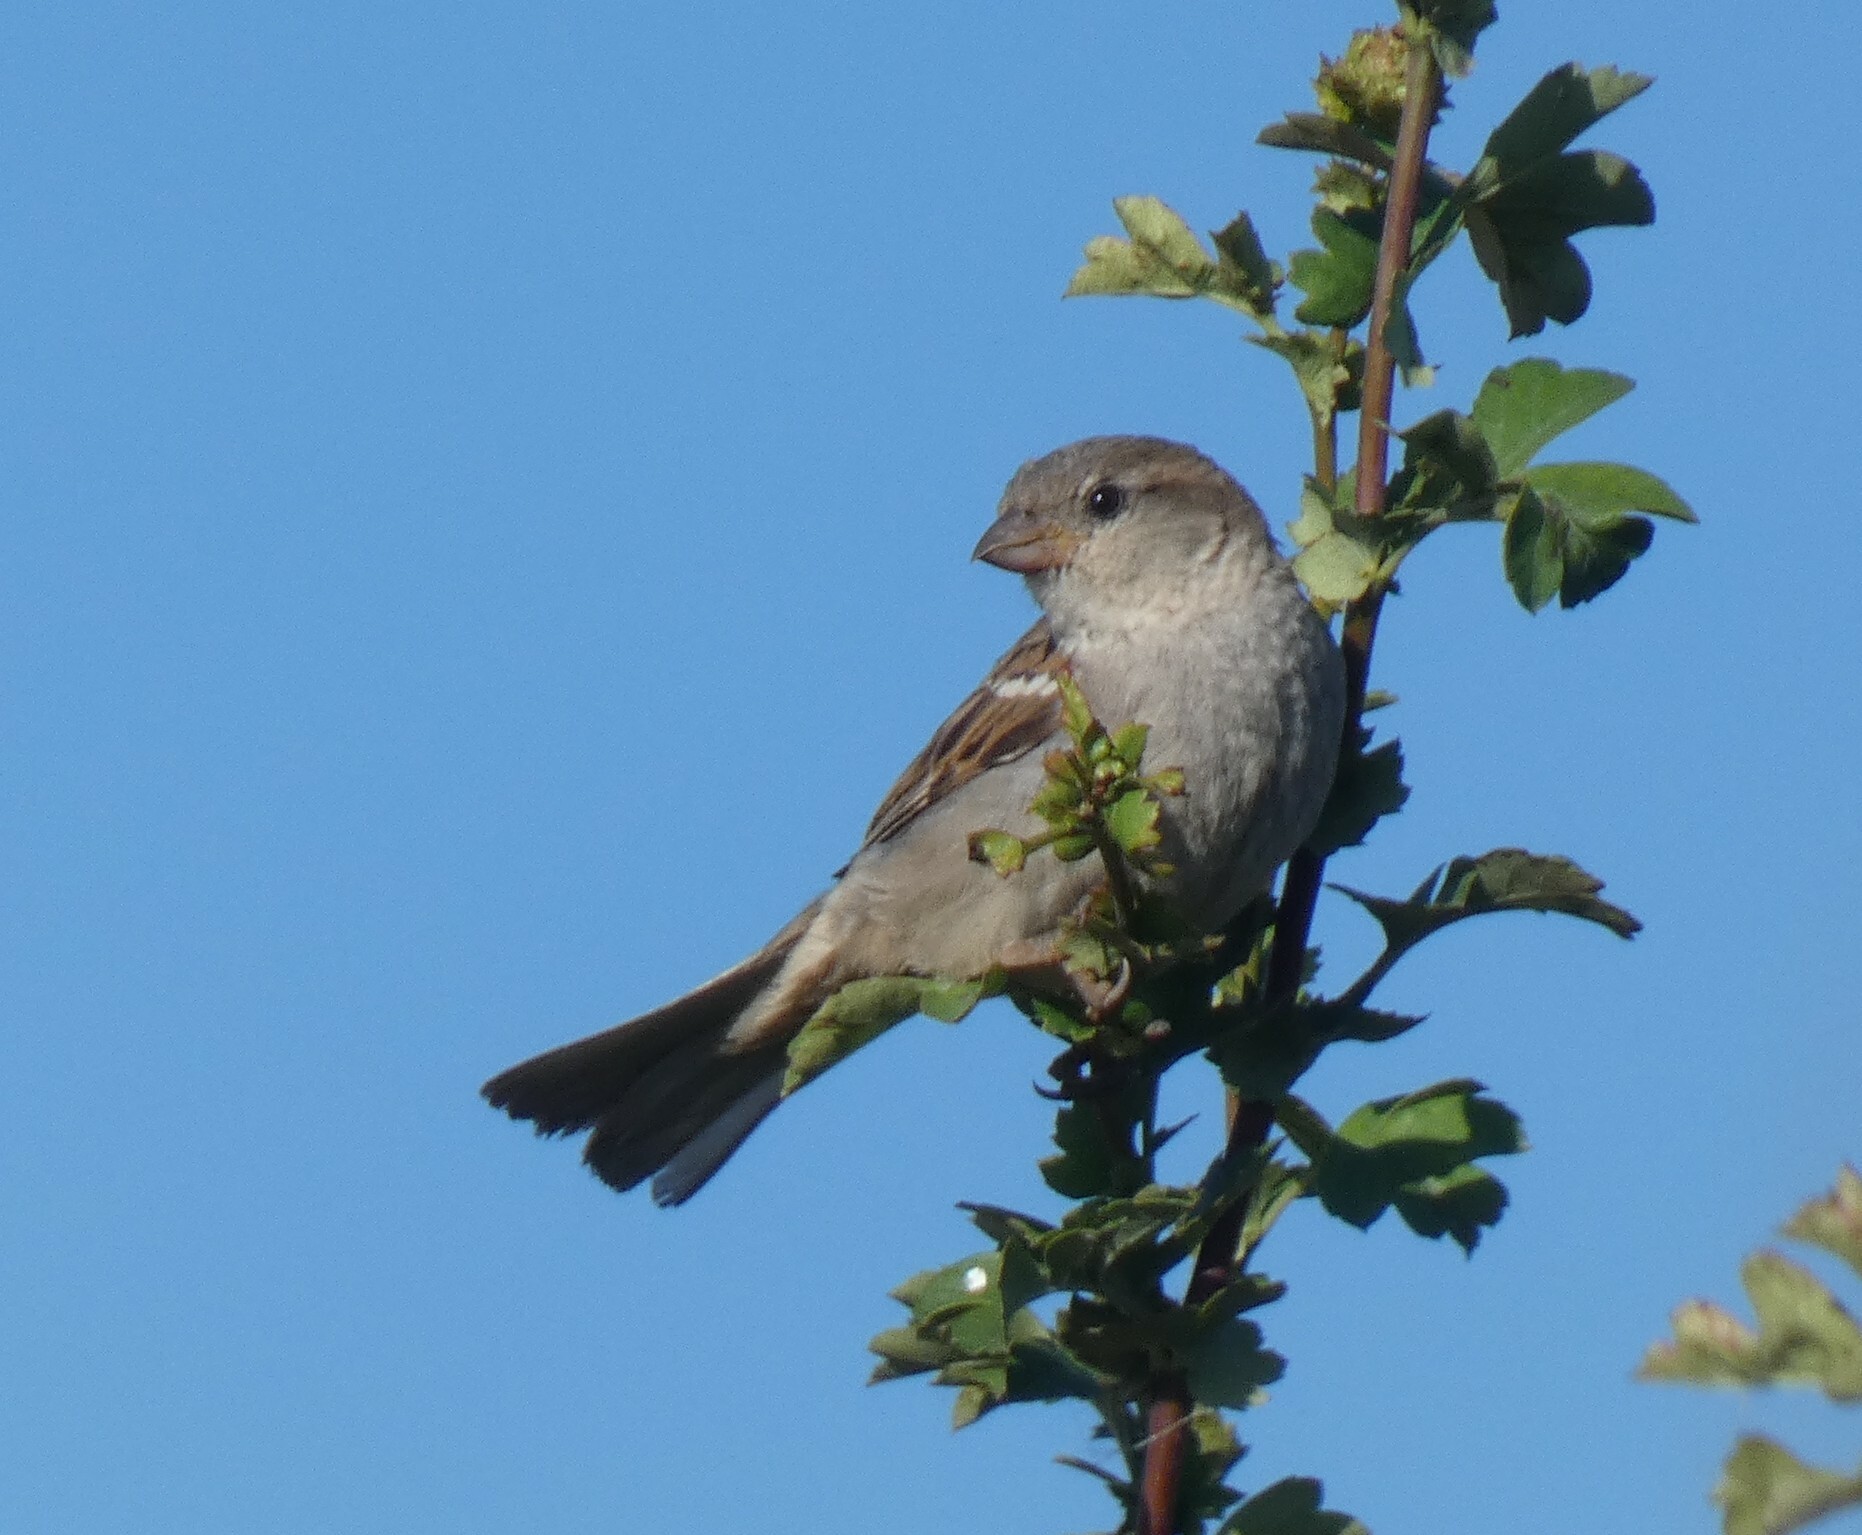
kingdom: Animalia
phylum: Chordata
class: Aves
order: Passeriformes
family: Passeridae
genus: Passer
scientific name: Passer domesticus
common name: House sparrow
